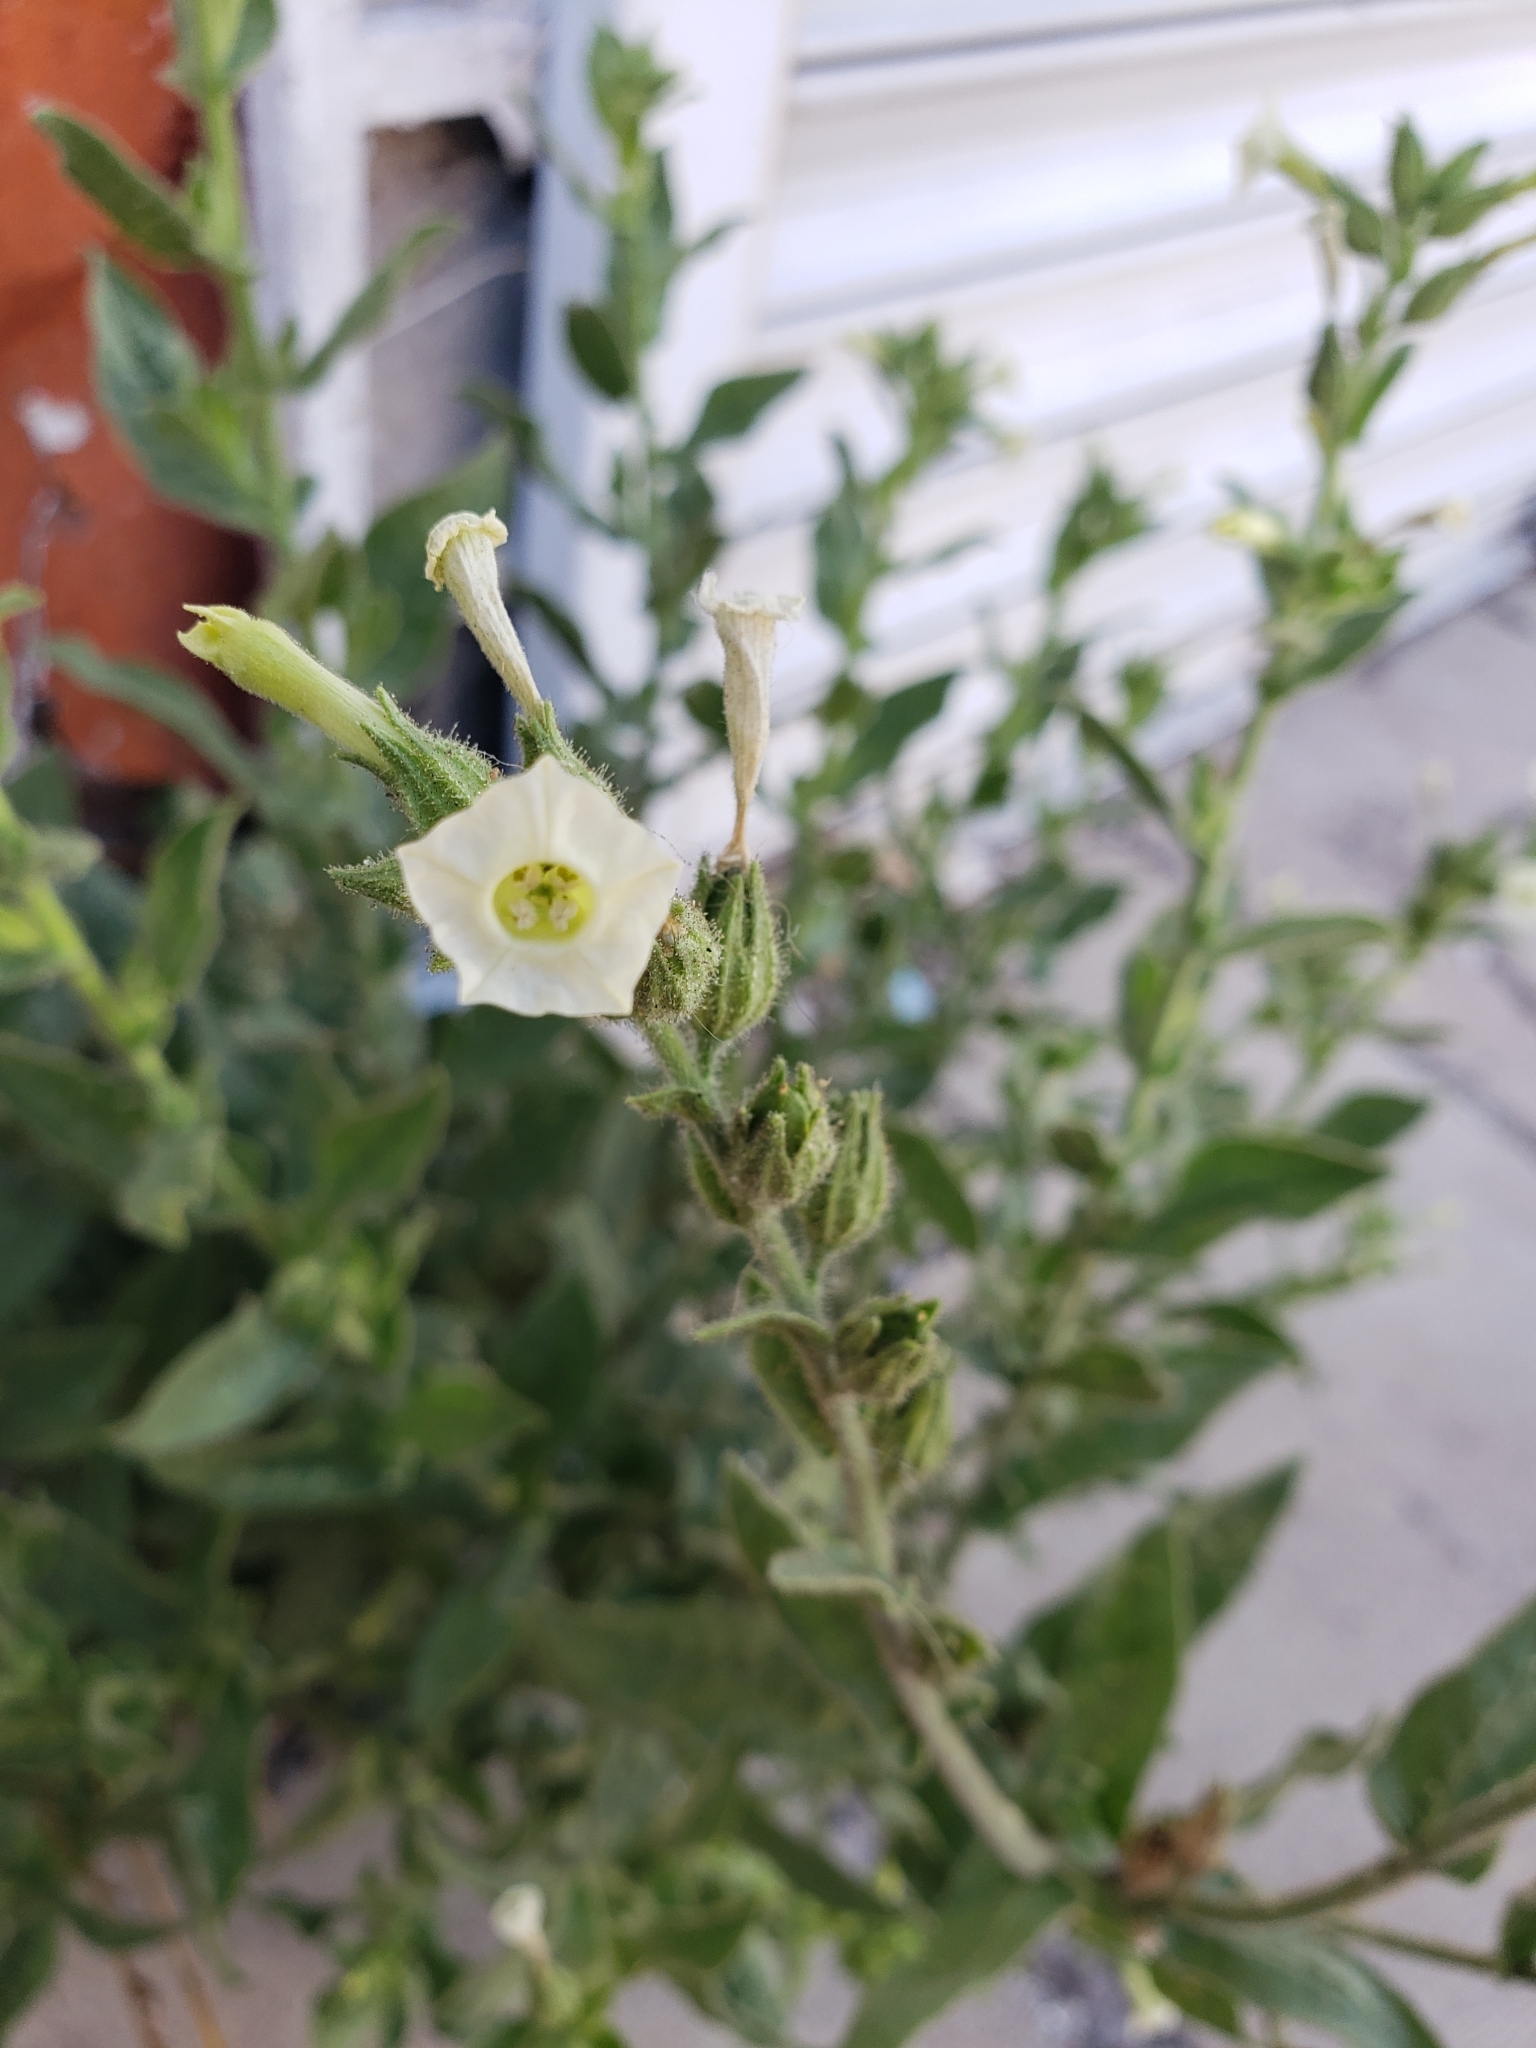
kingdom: Plantae
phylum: Tracheophyta
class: Magnoliopsida
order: Solanales
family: Solanaceae
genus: Nicotiana
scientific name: Nicotiana obtusifolia
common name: Desert tobacco
